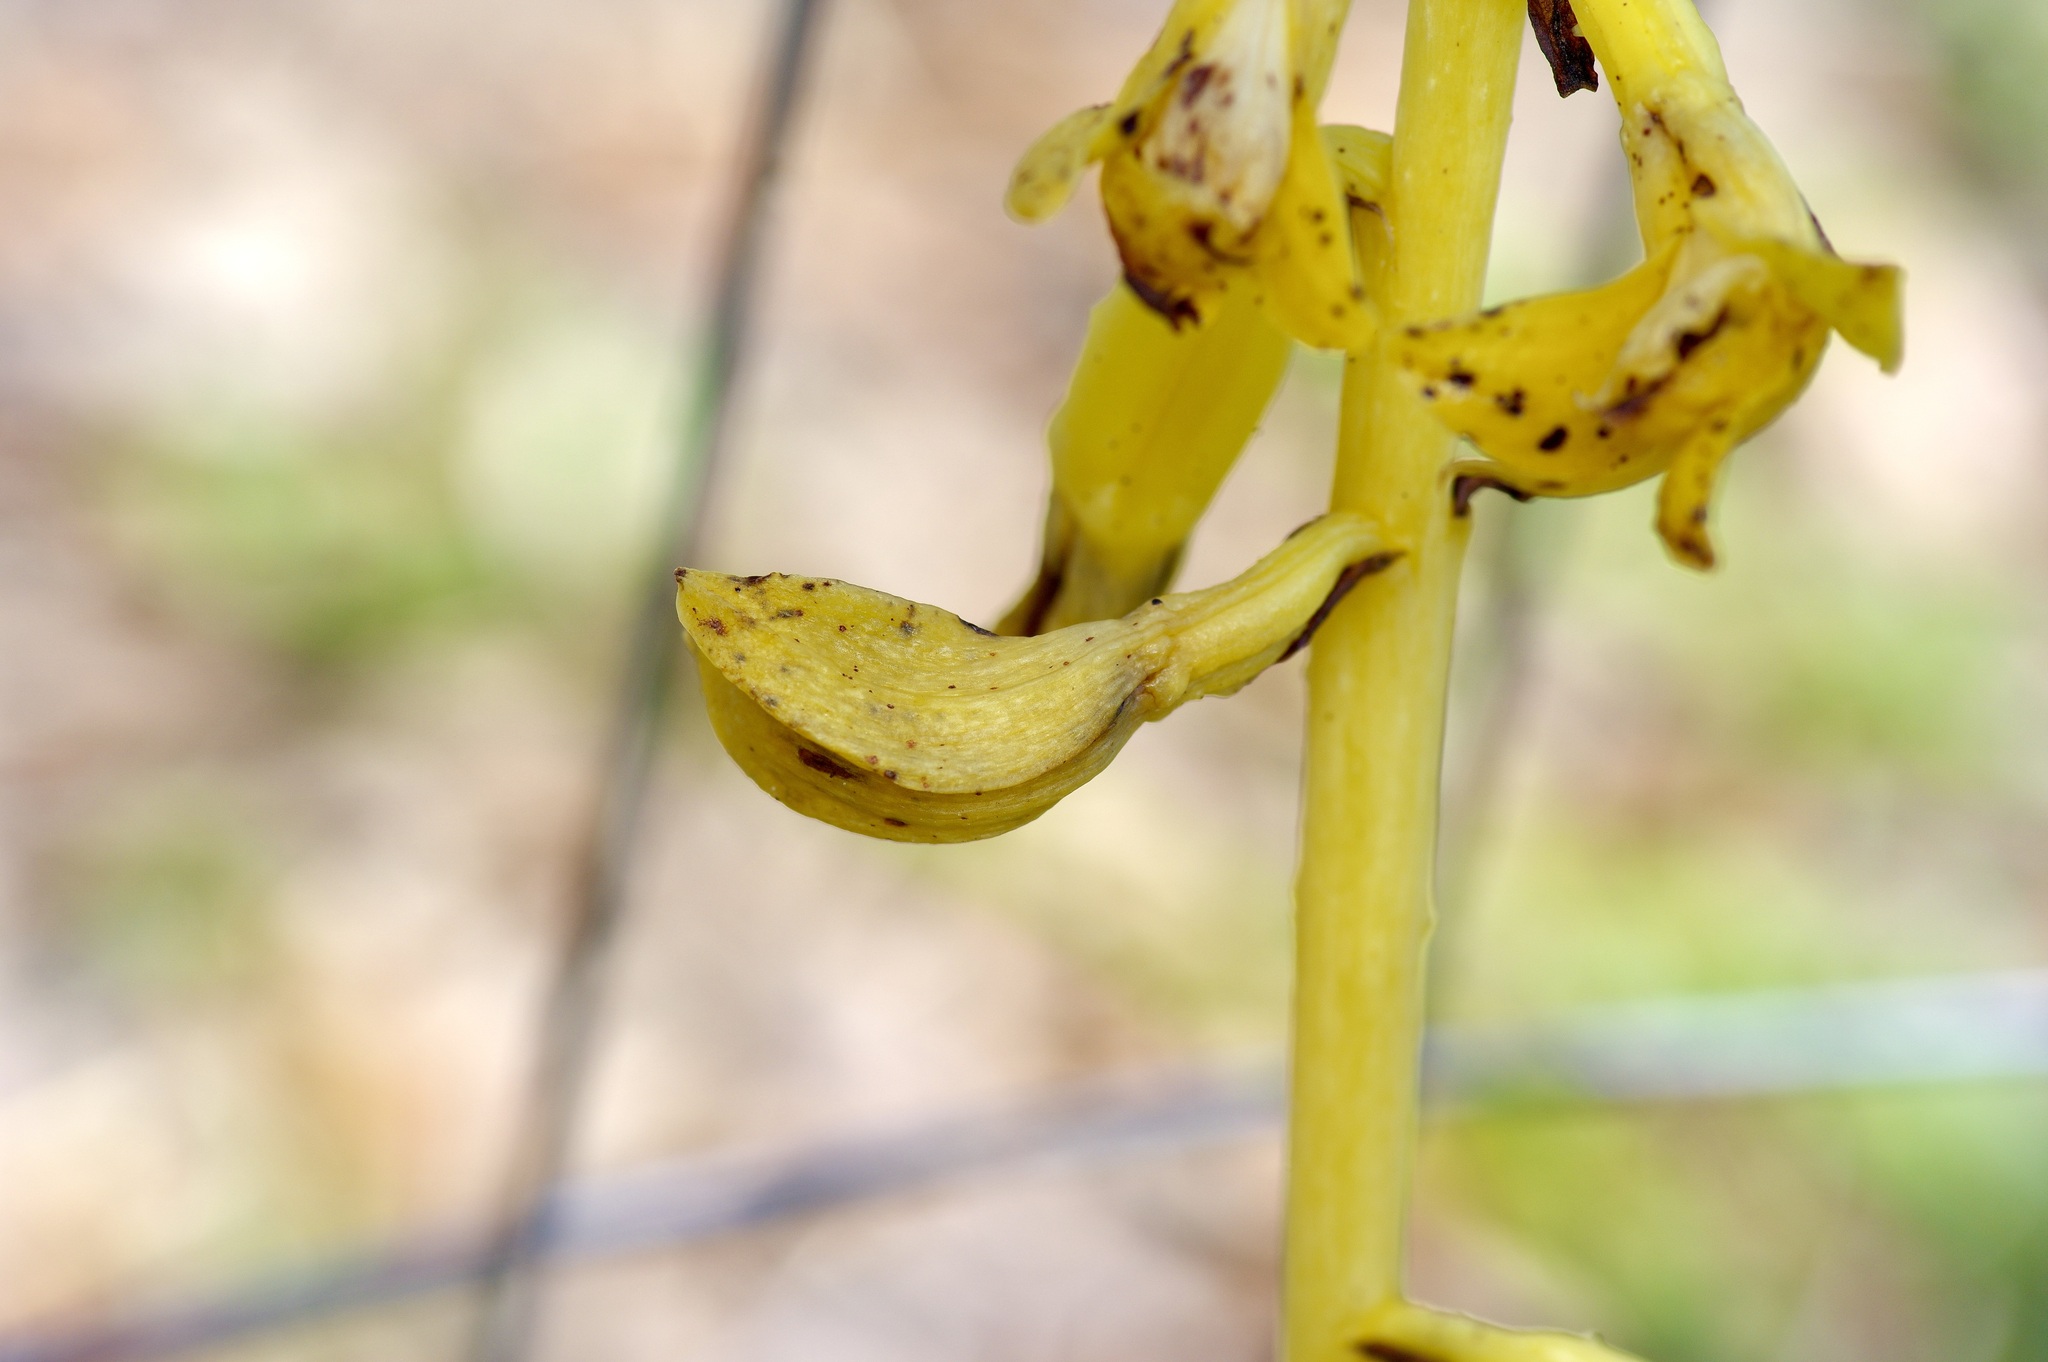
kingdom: Plantae
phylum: Tracheophyta
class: Liliopsida
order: Asparagales
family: Orchidaceae
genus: Bletia
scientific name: Bletia spicata
